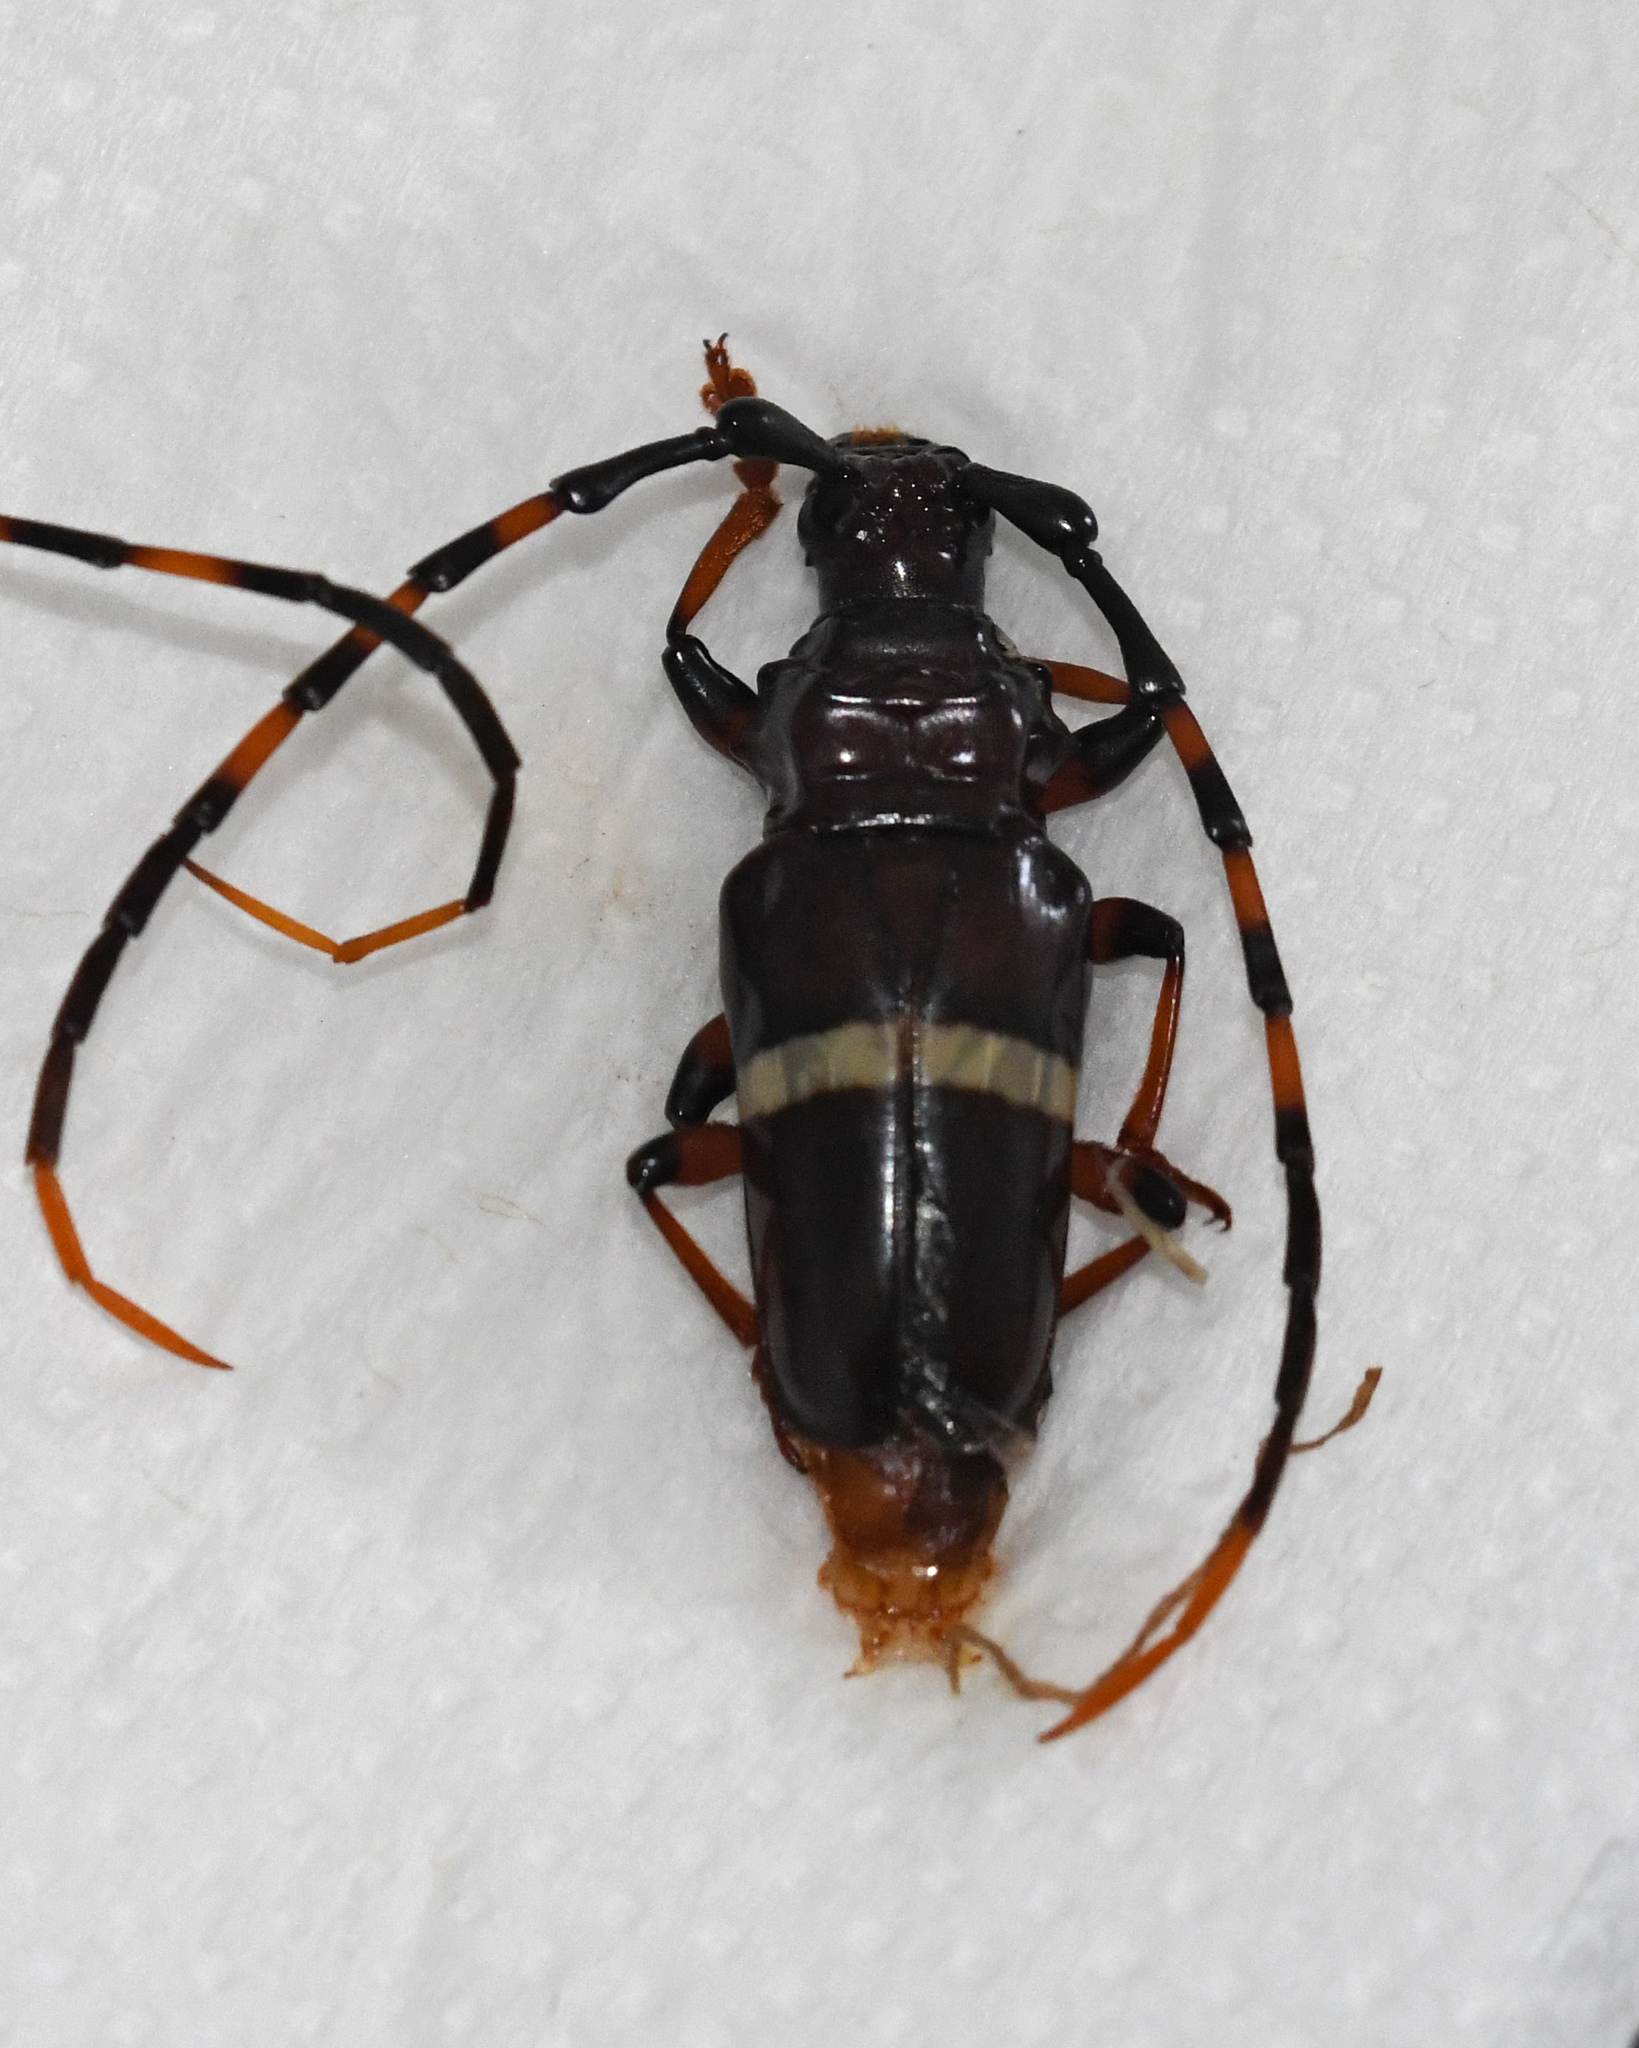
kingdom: Animalia
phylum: Arthropoda
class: Insecta
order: Coleoptera
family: Cerambycidae
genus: Trachyderes
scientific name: Trachyderes succinctus
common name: Mango longhorn
